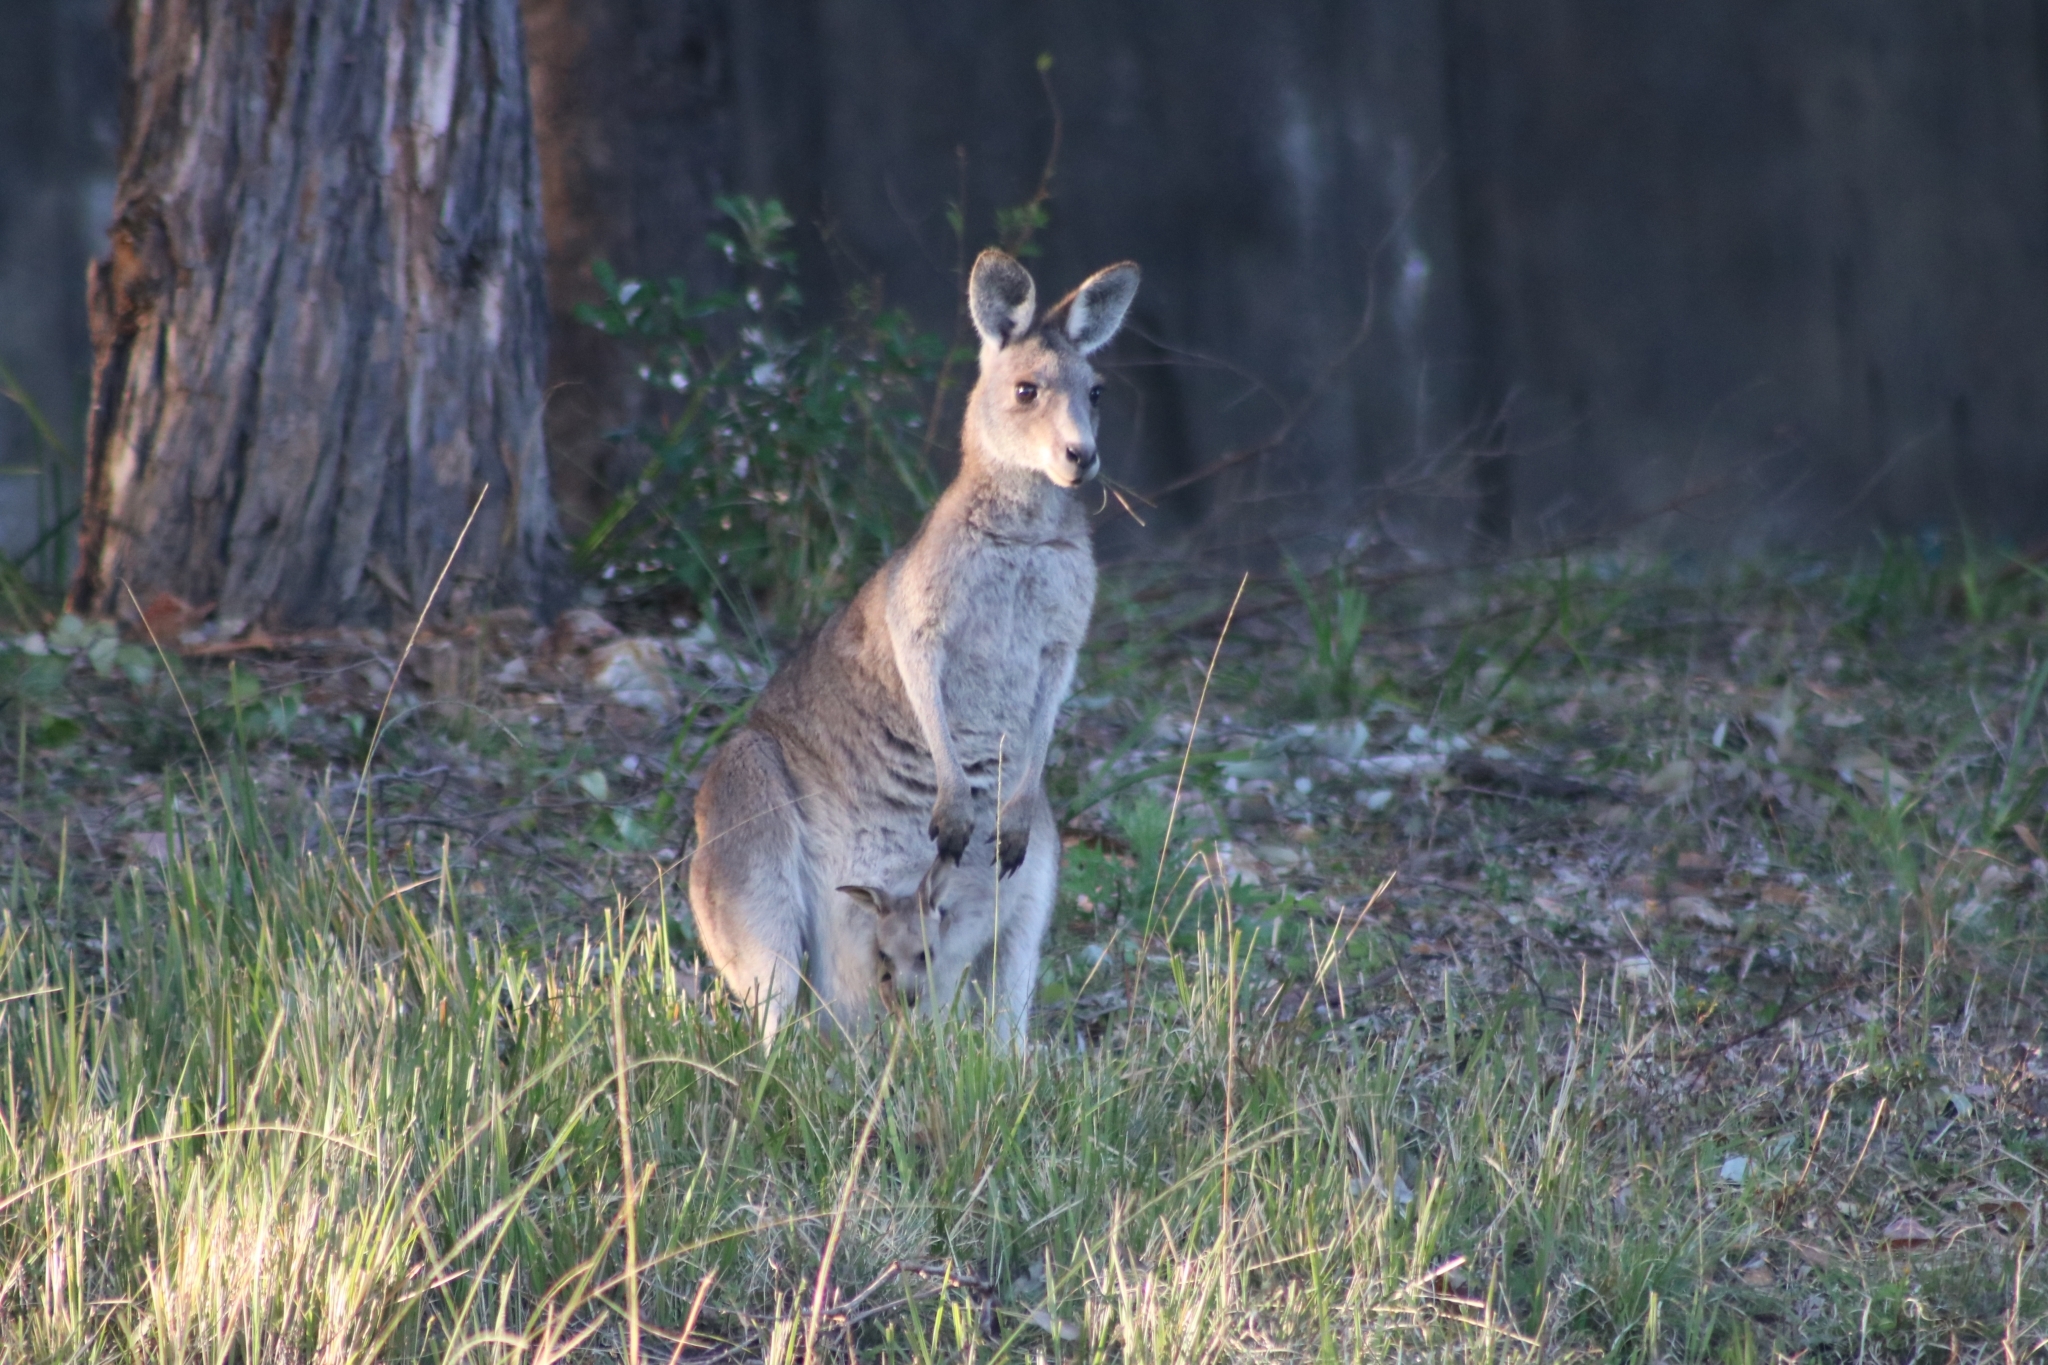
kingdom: Animalia
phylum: Chordata
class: Mammalia
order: Diprotodontia
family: Macropodidae
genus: Macropus
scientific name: Macropus giganteus
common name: Eastern grey kangaroo
